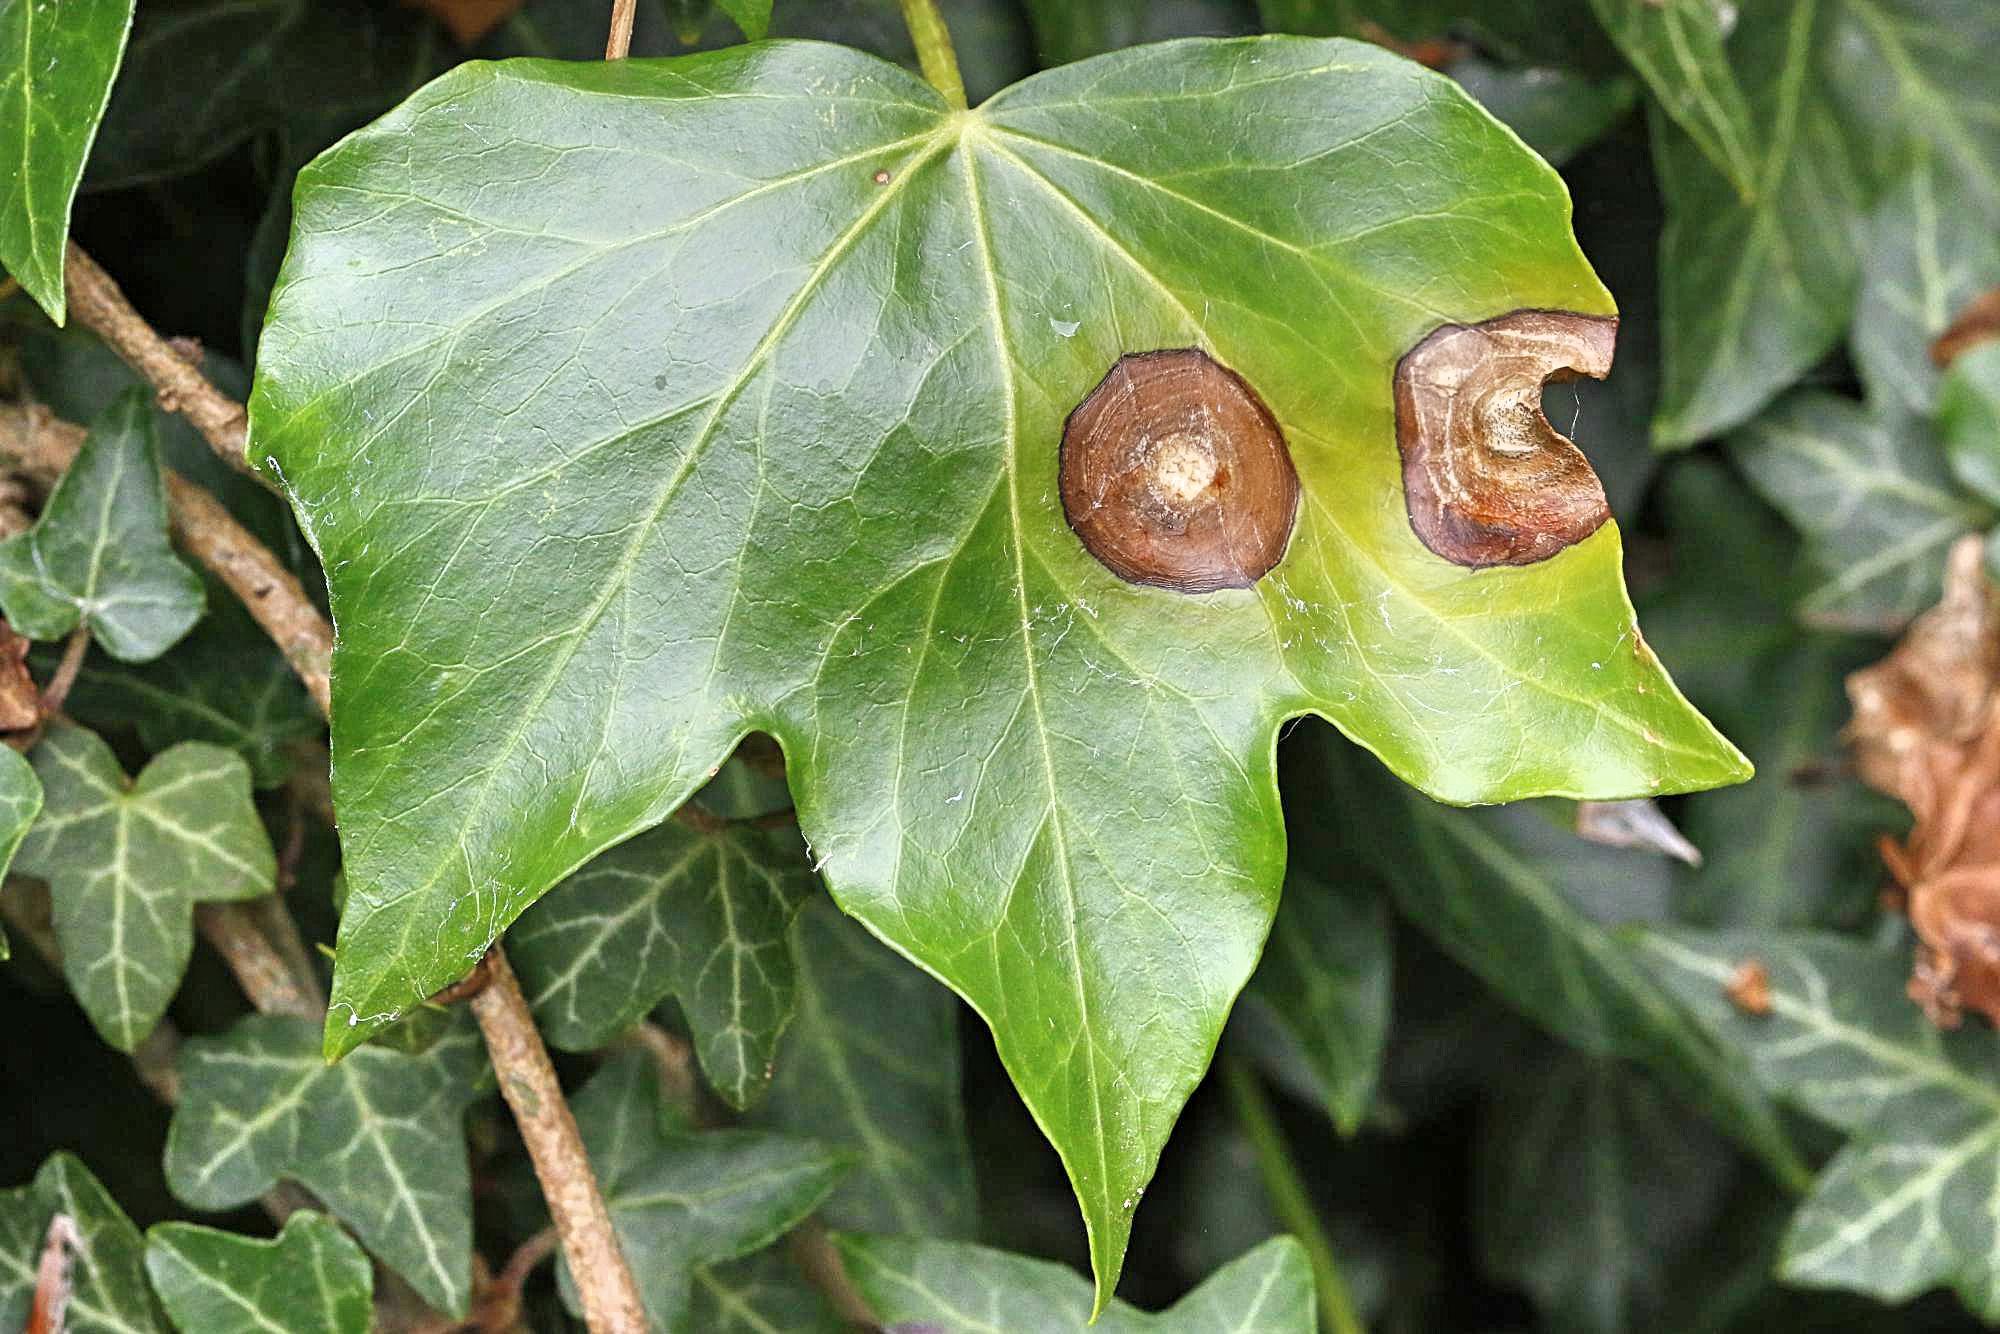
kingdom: Fungi
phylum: Ascomycota
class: Dothideomycetes
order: Pleosporales
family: Didymellaceae
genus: Boeremia
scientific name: Boeremia hedericola
